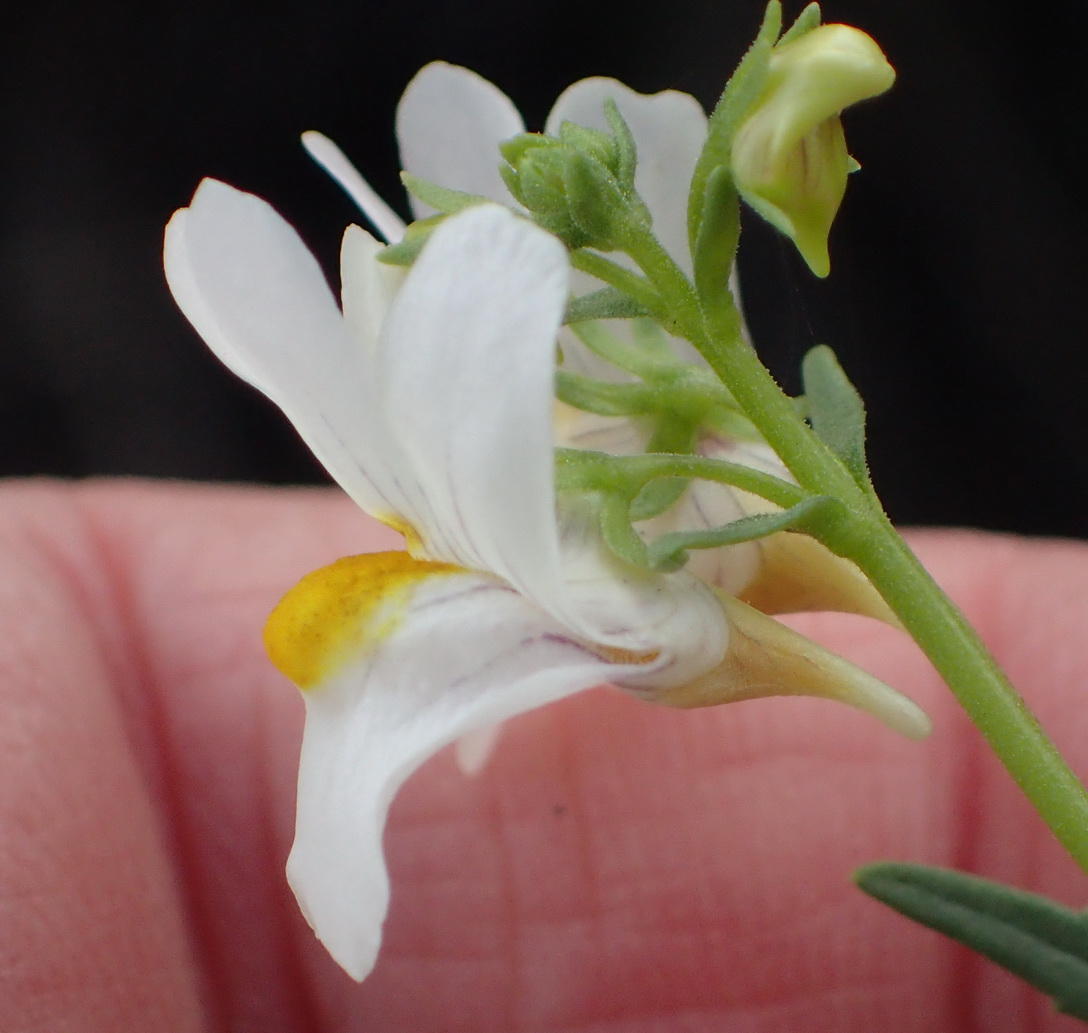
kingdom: Plantae
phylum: Tracheophyta
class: Magnoliopsida
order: Lamiales
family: Scrophulariaceae
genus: Nemesia
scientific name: Nemesia fruticans
